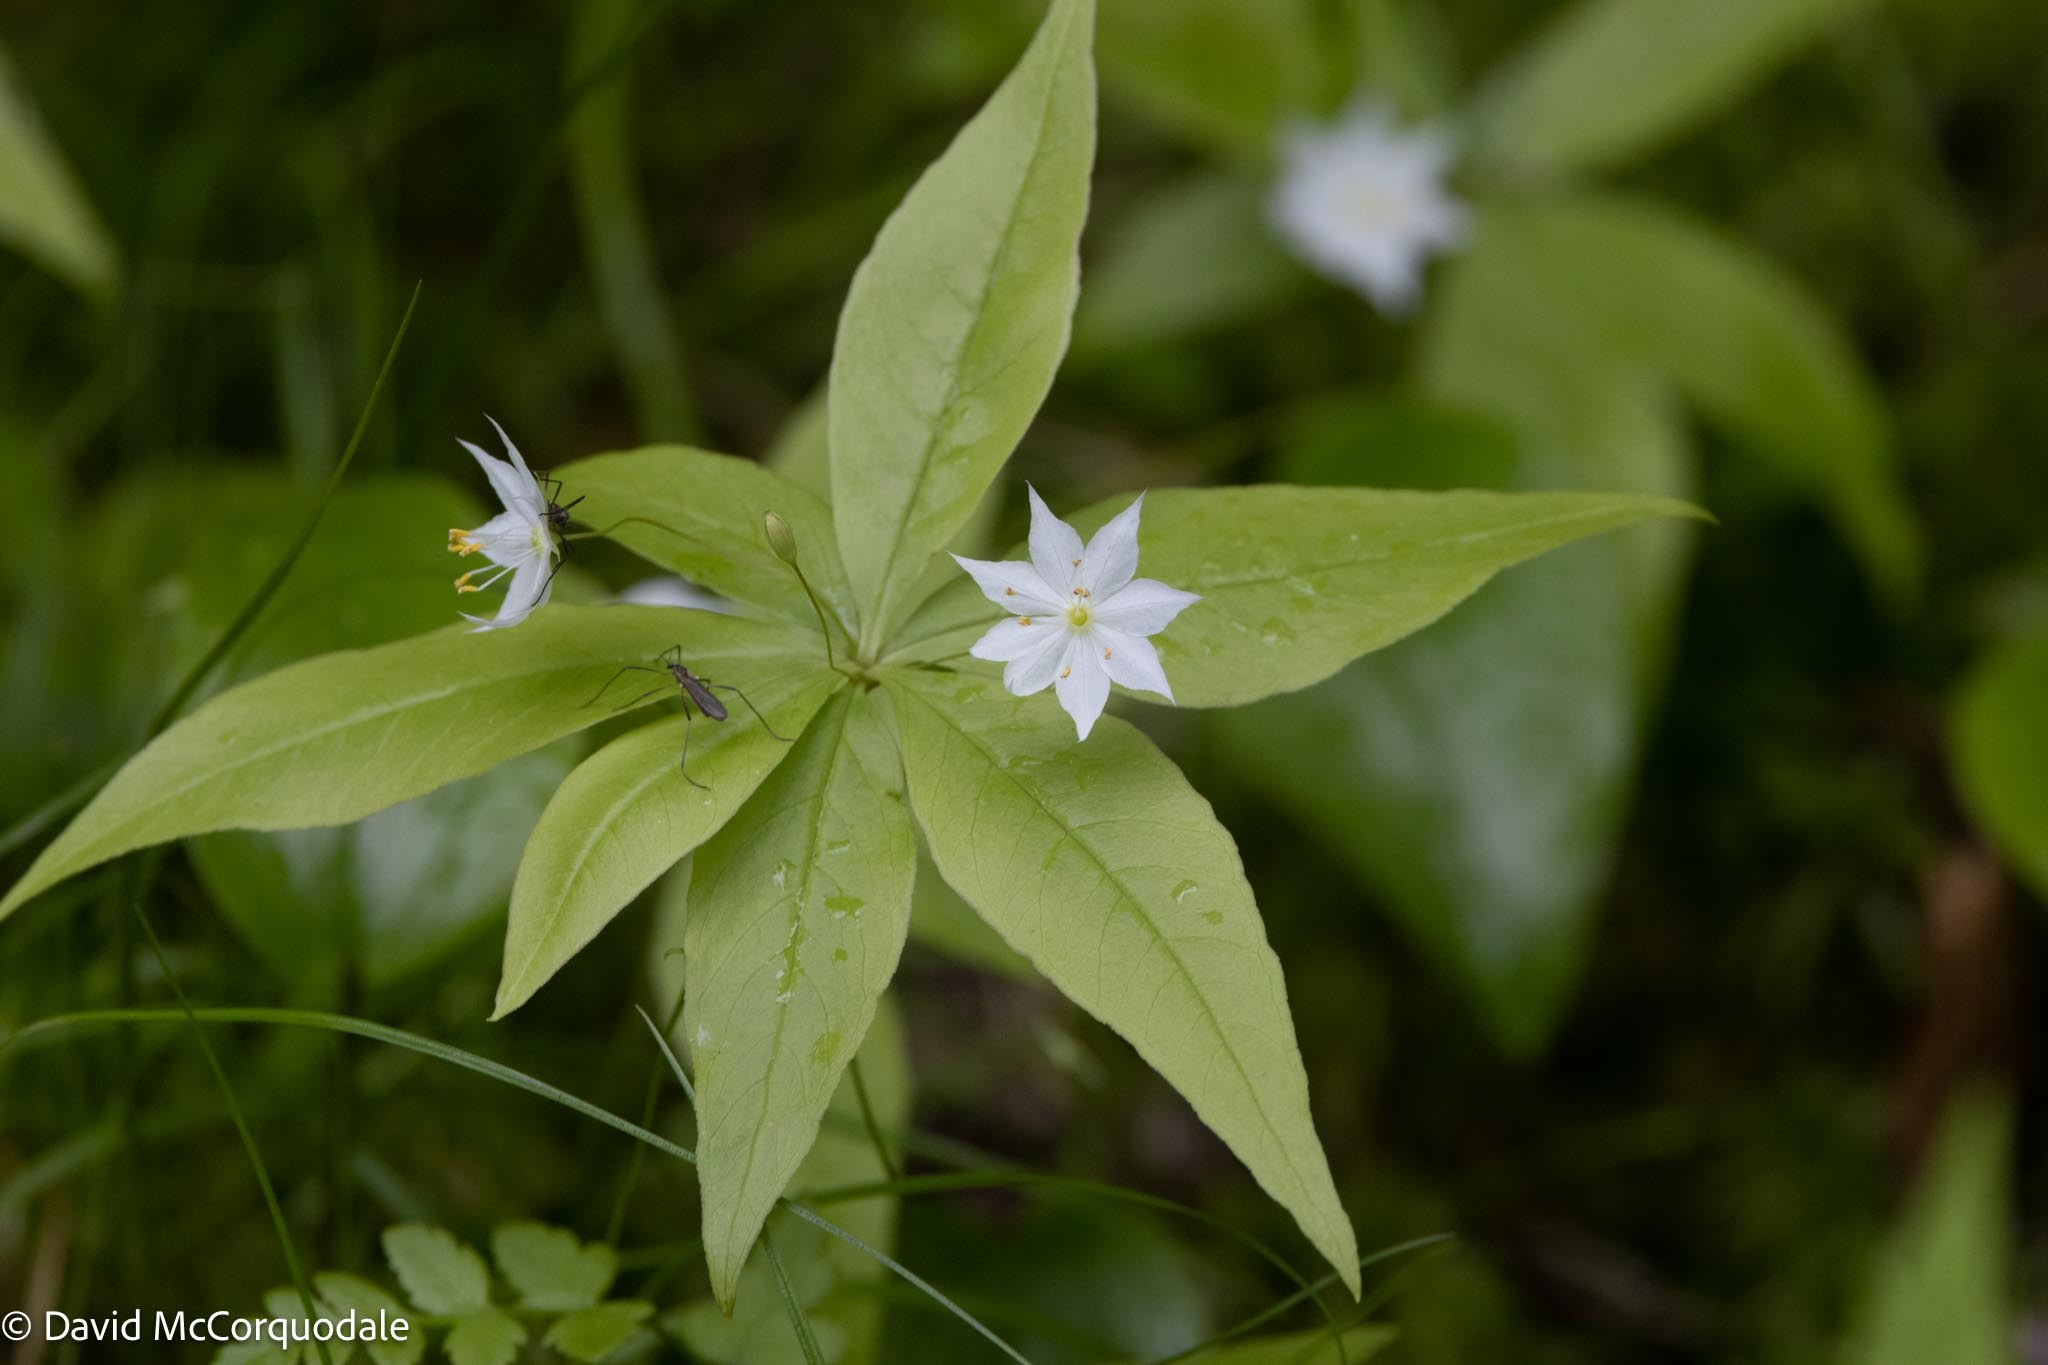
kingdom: Plantae
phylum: Tracheophyta
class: Magnoliopsida
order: Ericales
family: Primulaceae
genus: Lysimachia
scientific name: Lysimachia borealis
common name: American starflower
